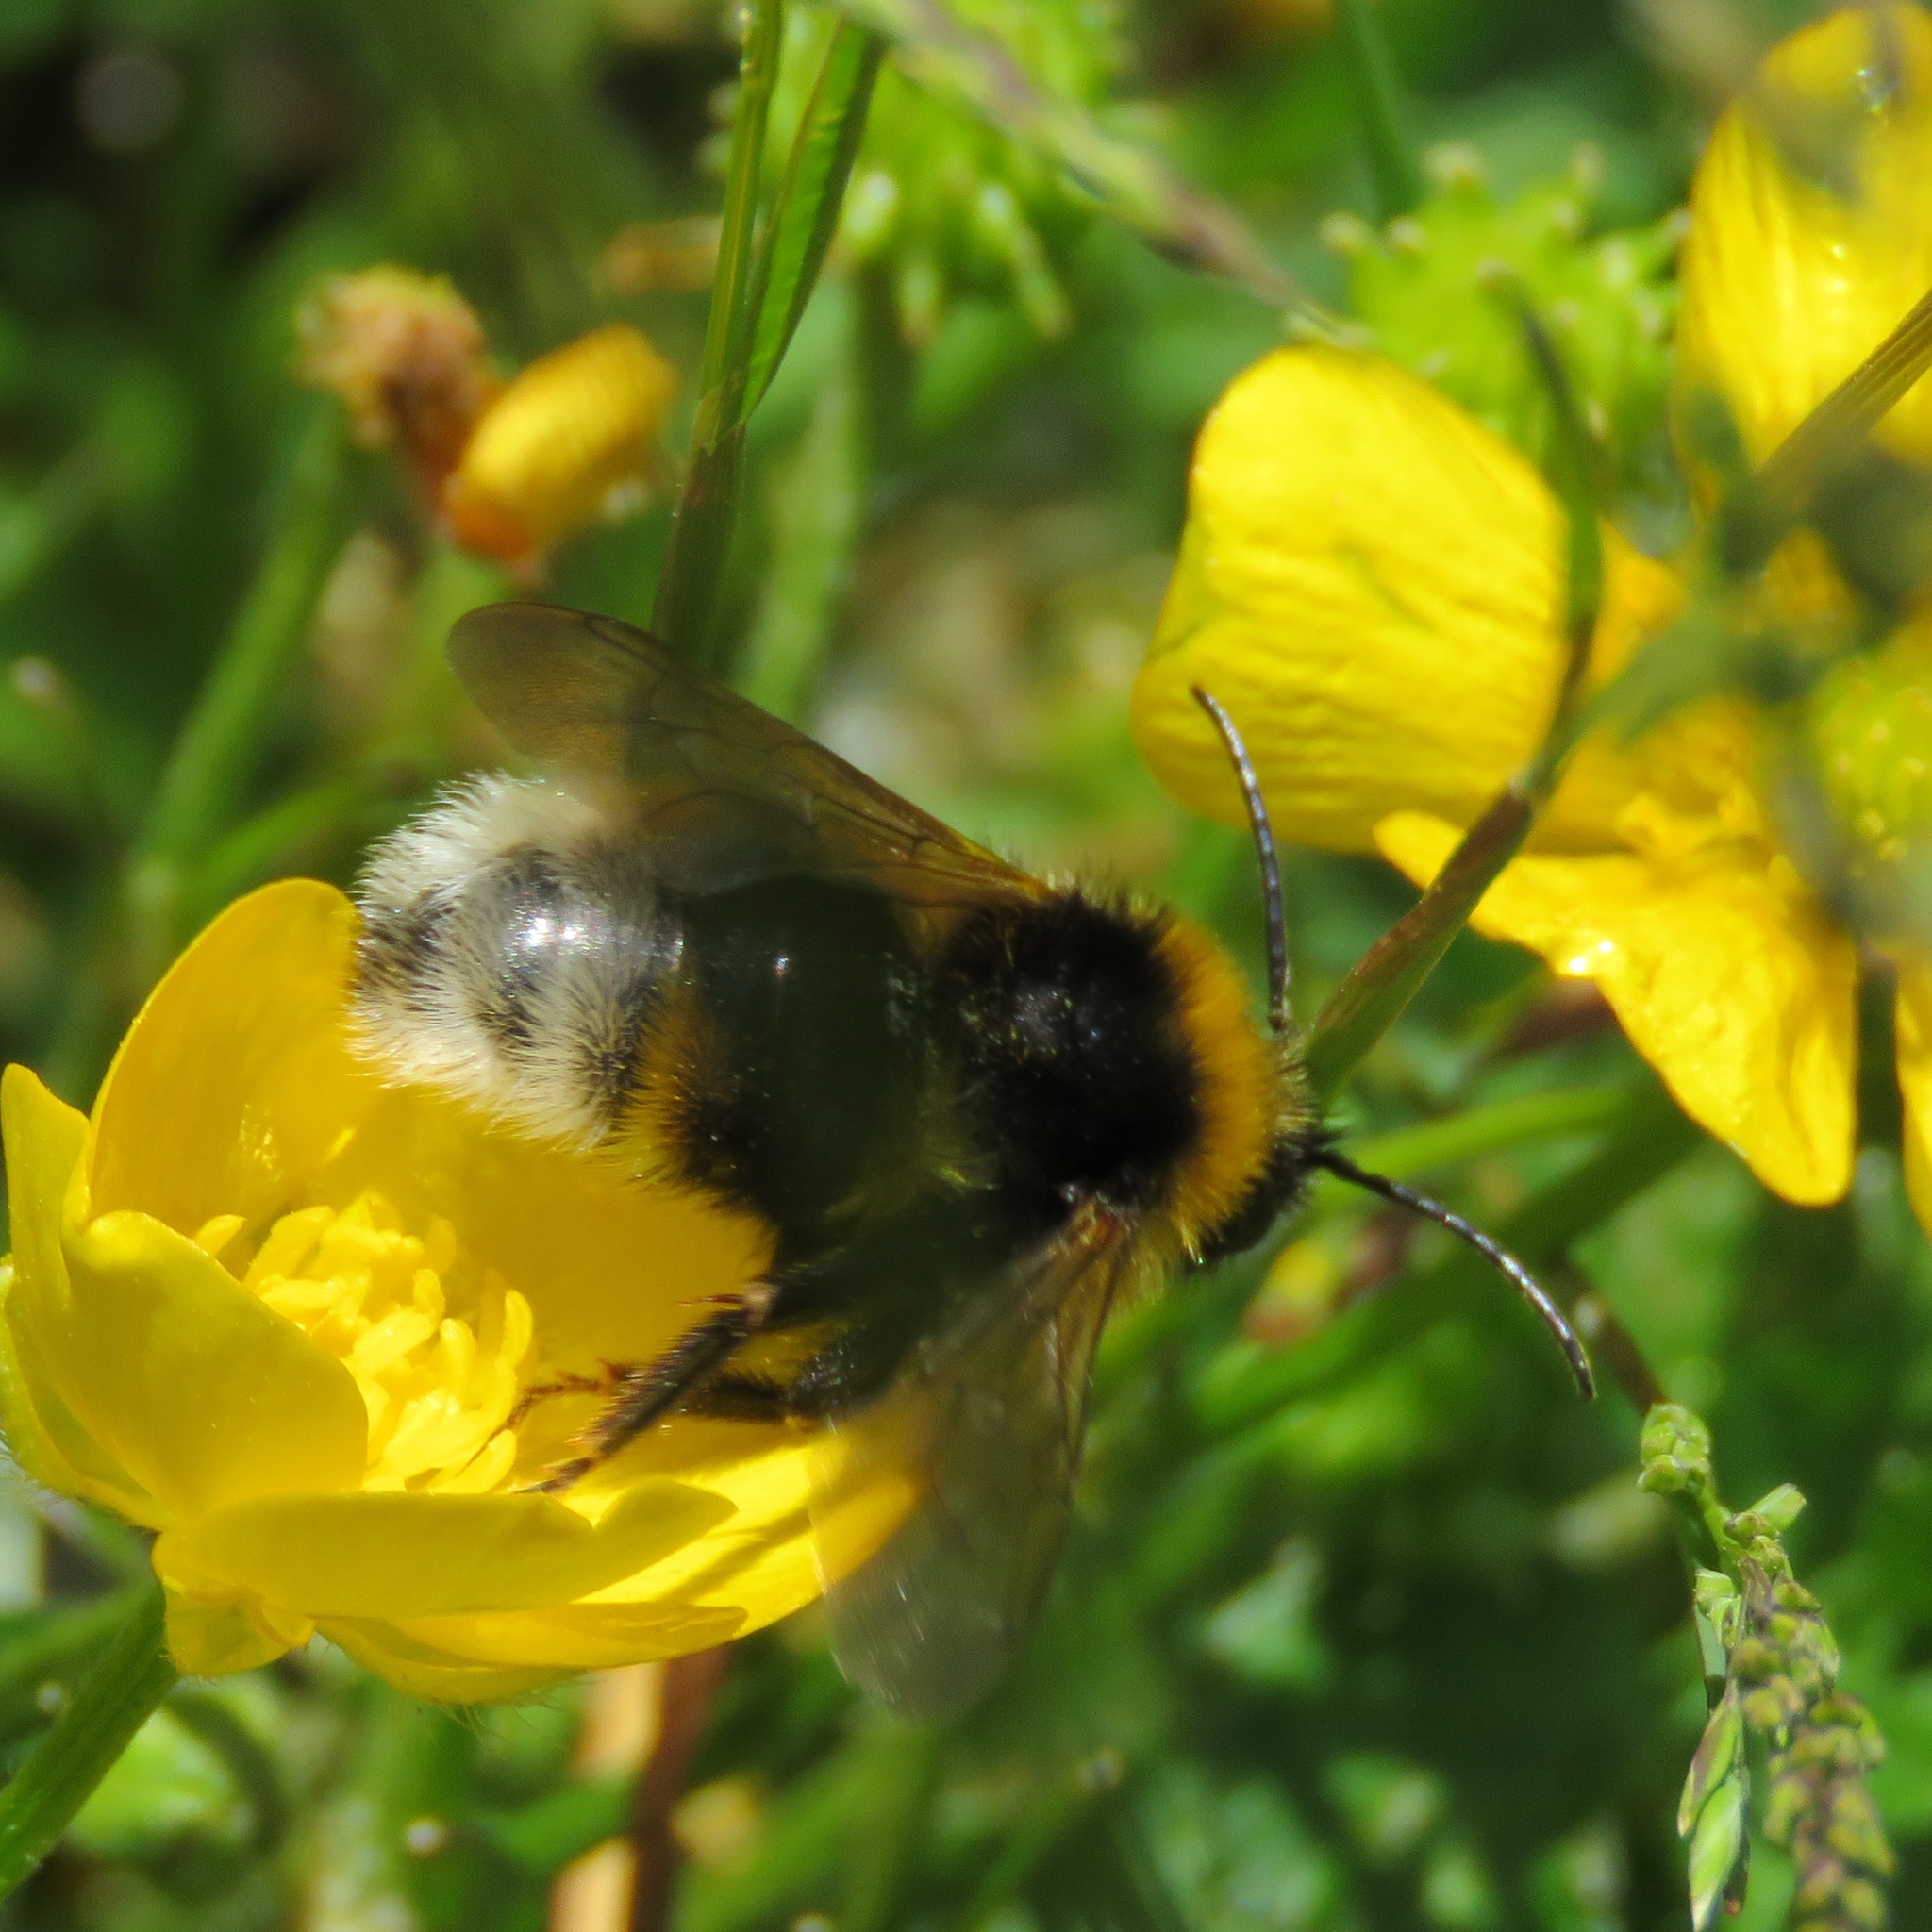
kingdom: Animalia
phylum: Arthropoda
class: Insecta
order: Hymenoptera
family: Apidae
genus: Bombus
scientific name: Bombus vestalis
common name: Vestal cuckoo bee
